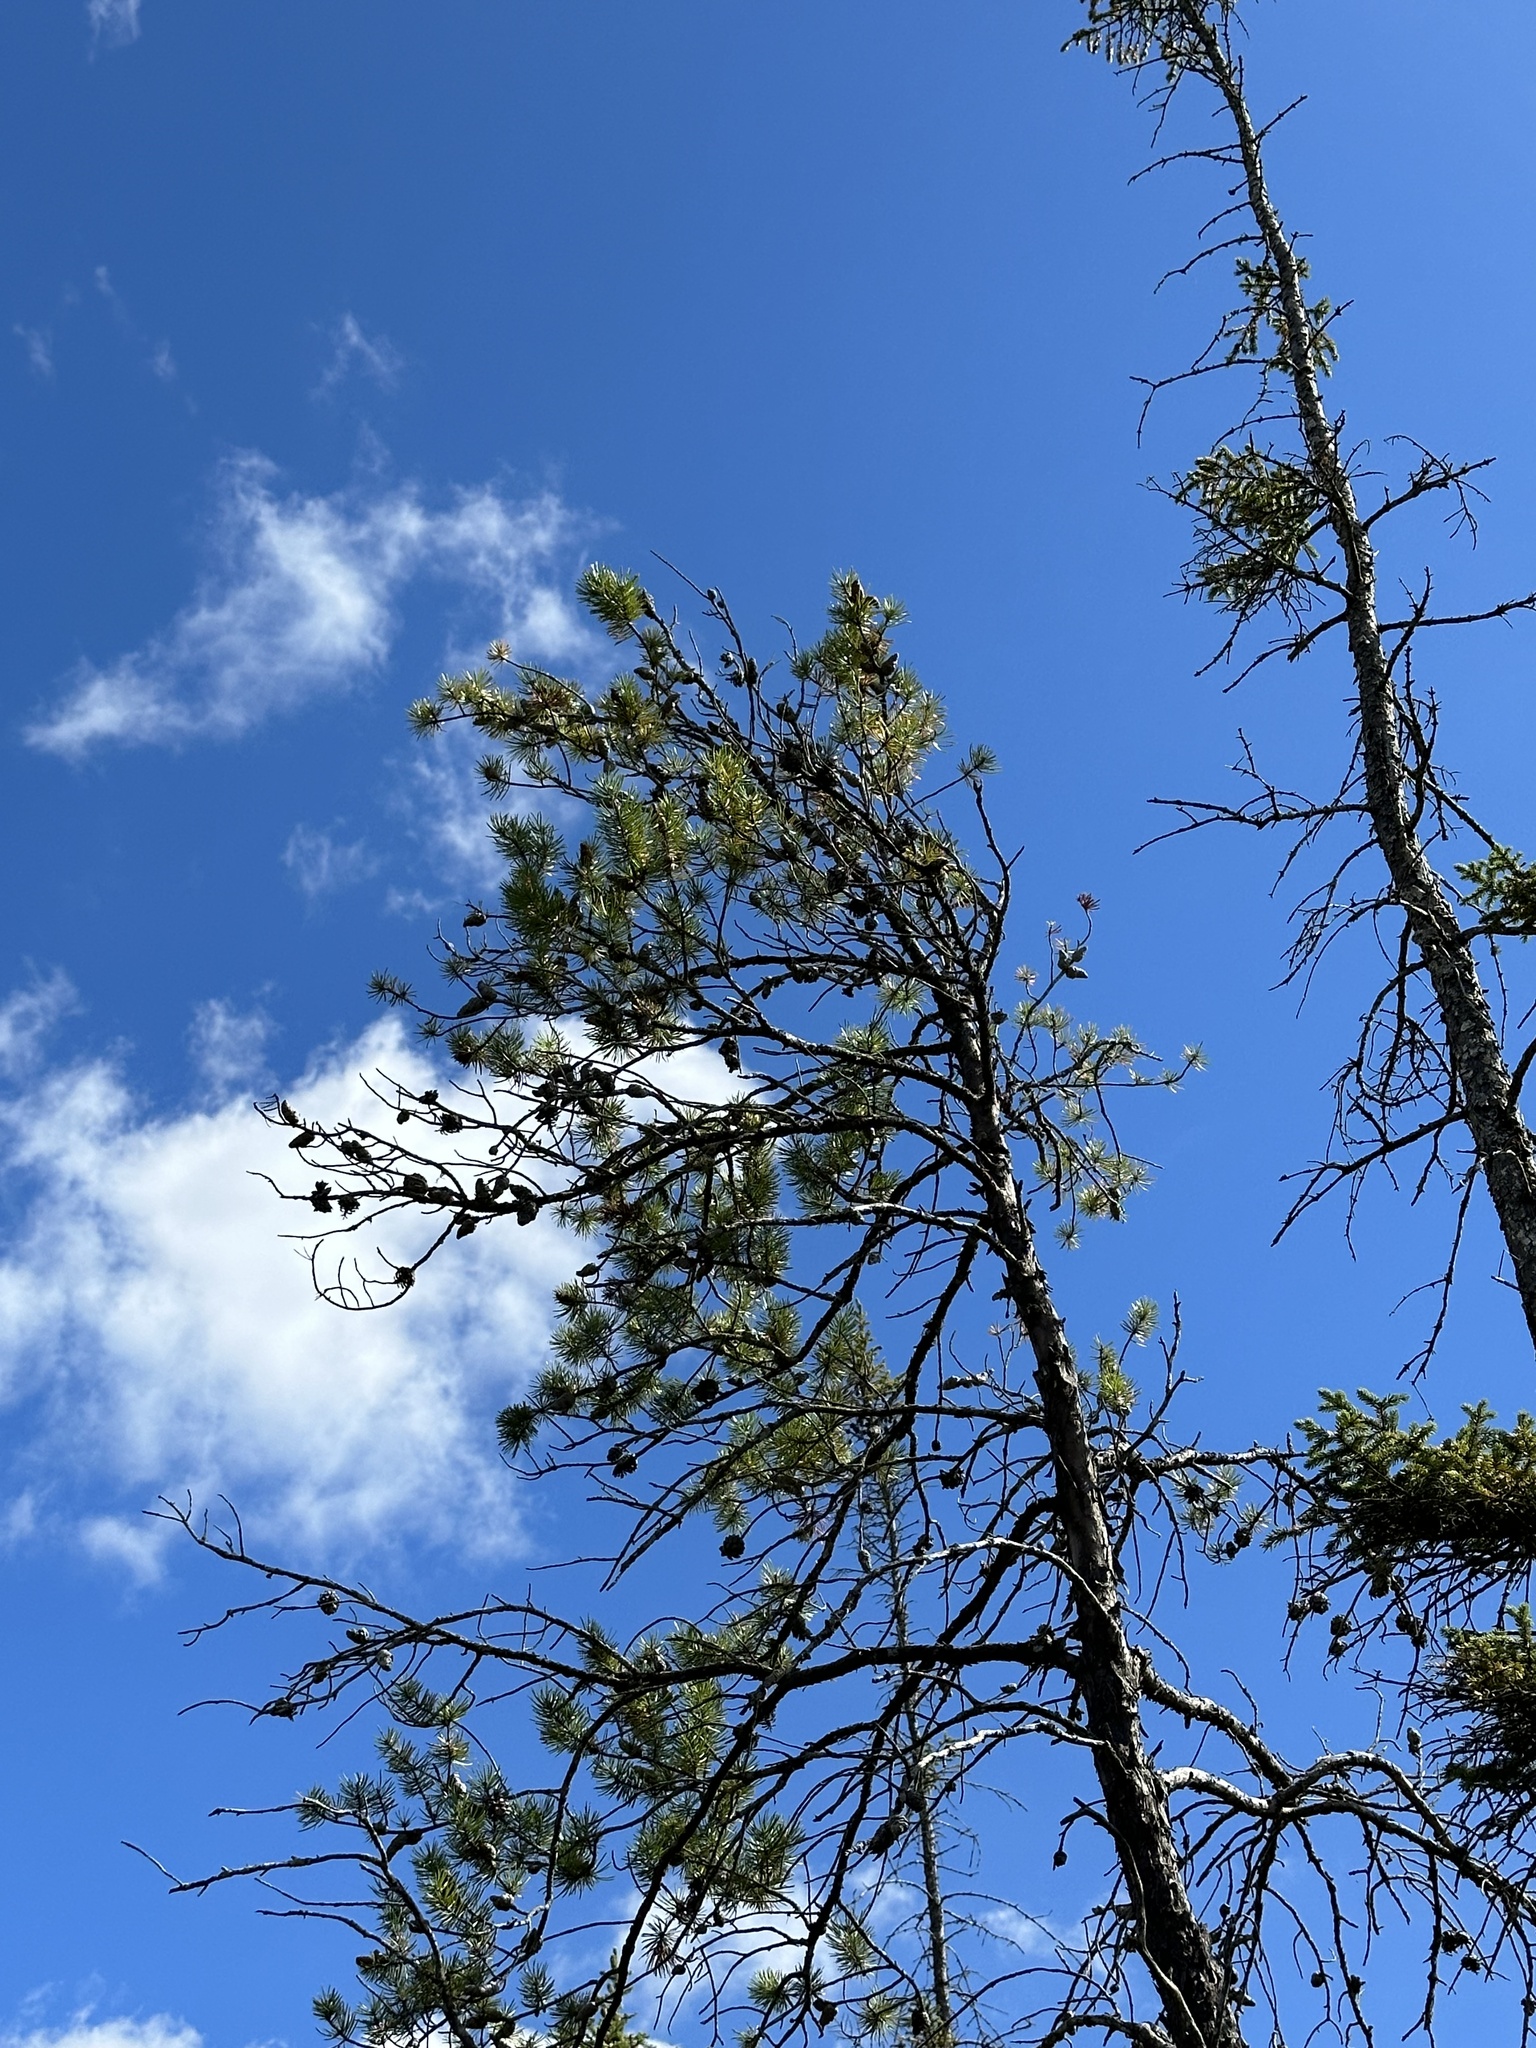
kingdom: Plantae
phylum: Tracheophyta
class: Pinopsida
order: Pinales
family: Pinaceae
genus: Pinus
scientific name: Pinus banksiana
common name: Jack pine
